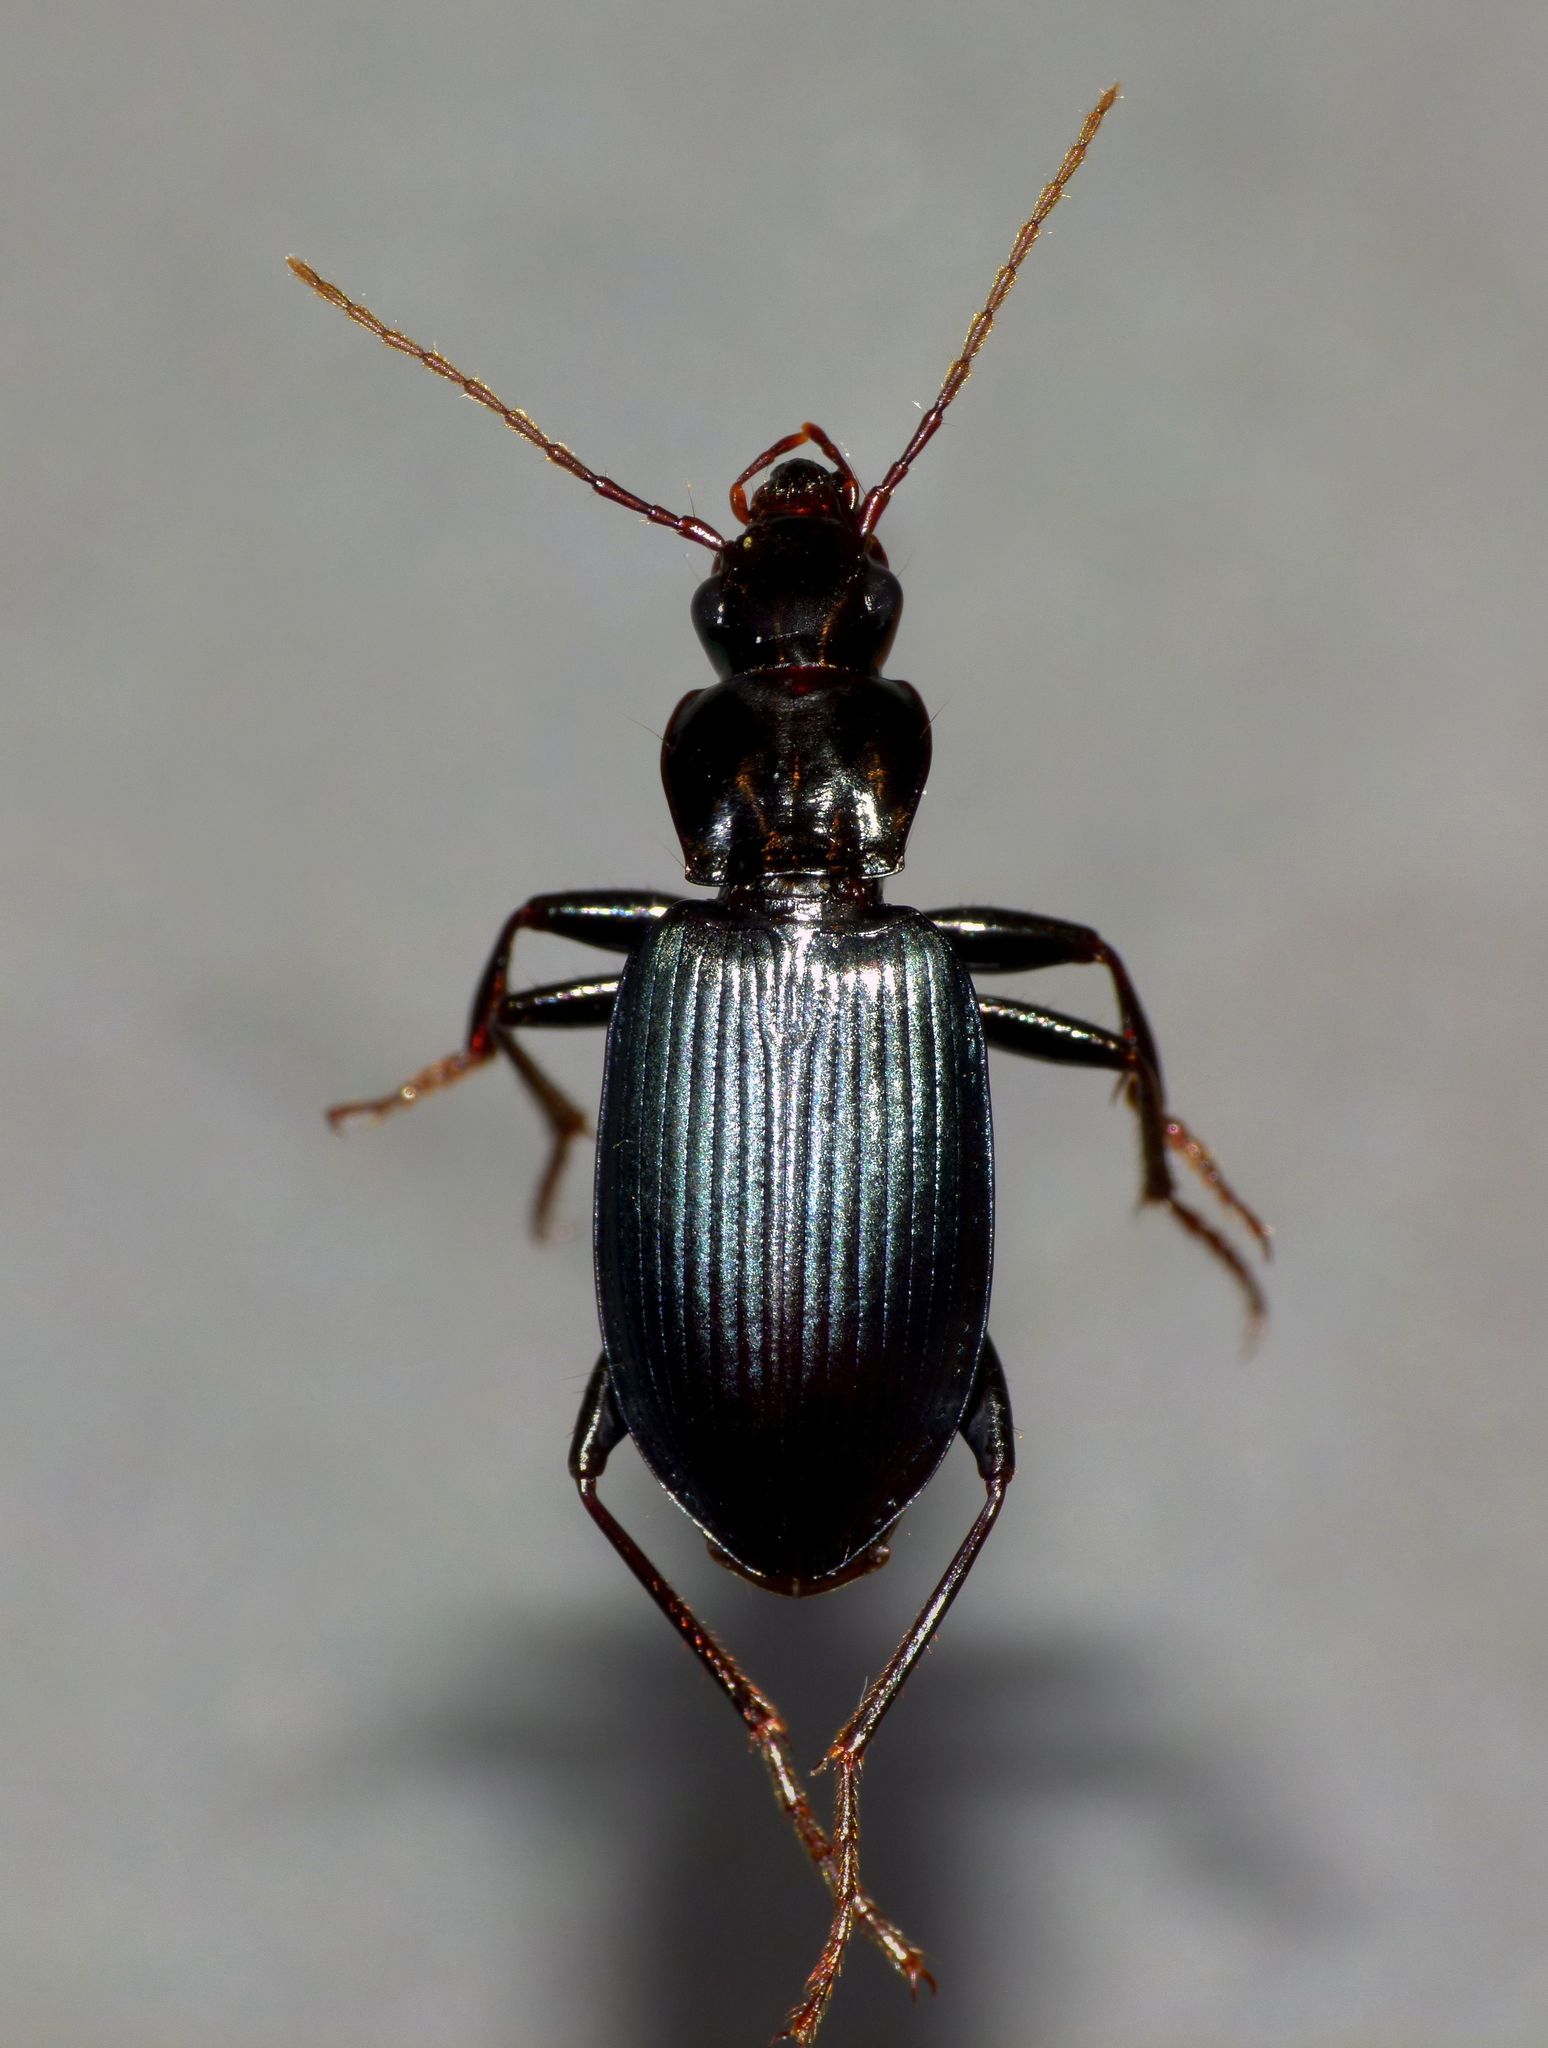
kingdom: Animalia
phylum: Arthropoda
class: Insecta
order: Coleoptera
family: Carabidae
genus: Laemostenus
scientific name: Laemostenus complanatus
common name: Cosmopolitan ground beetle
